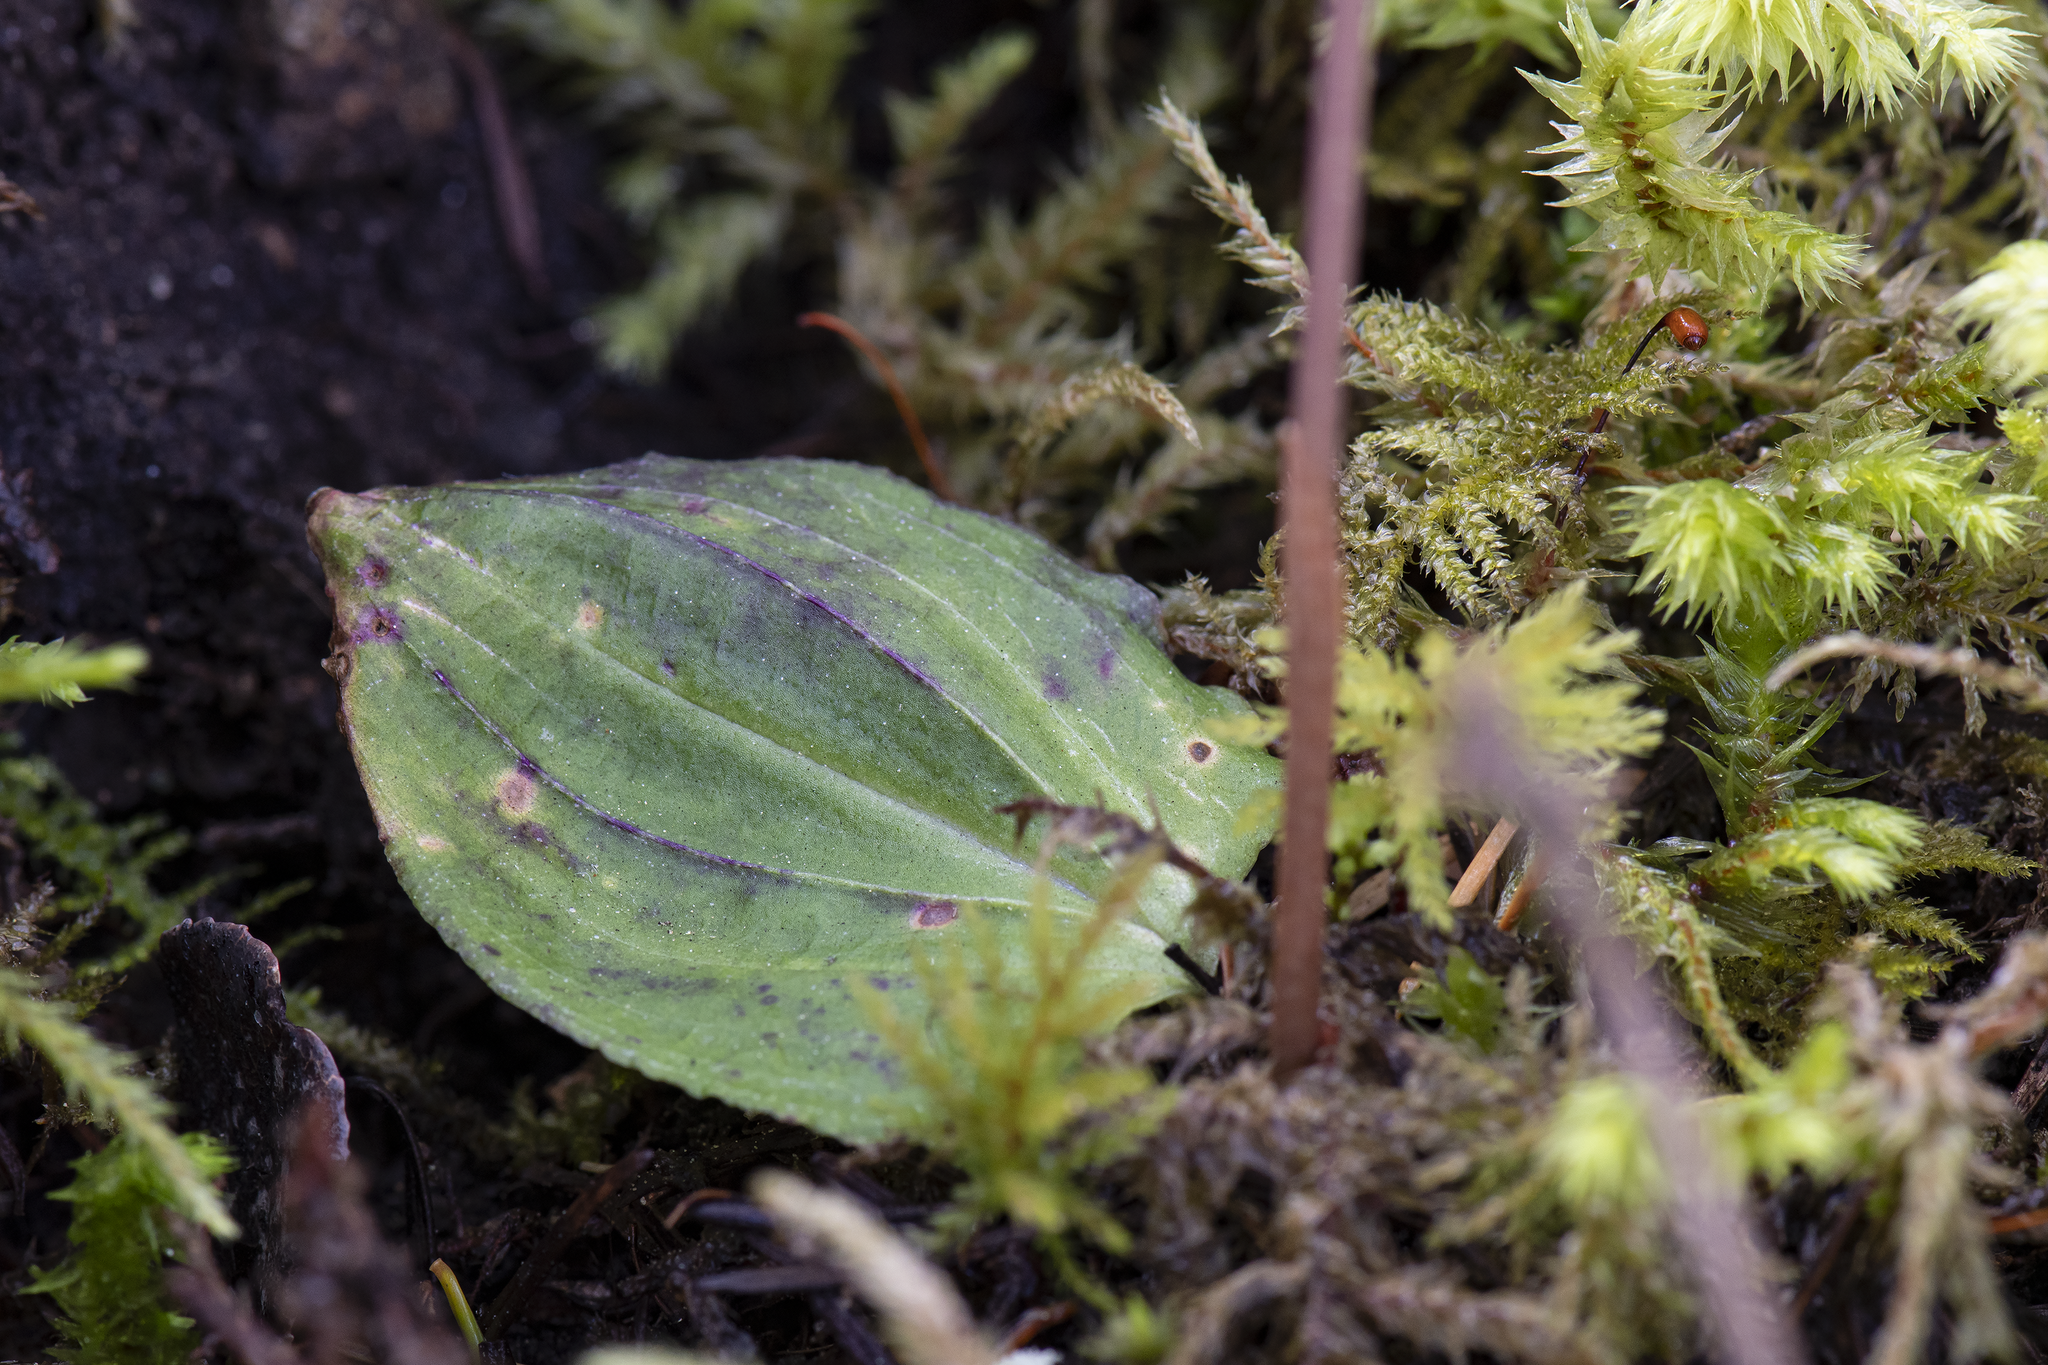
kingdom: Plantae
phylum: Tracheophyta
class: Liliopsida
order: Asparagales
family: Orchidaceae
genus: Calypso
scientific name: Calypso bulbosa
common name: Calypso
